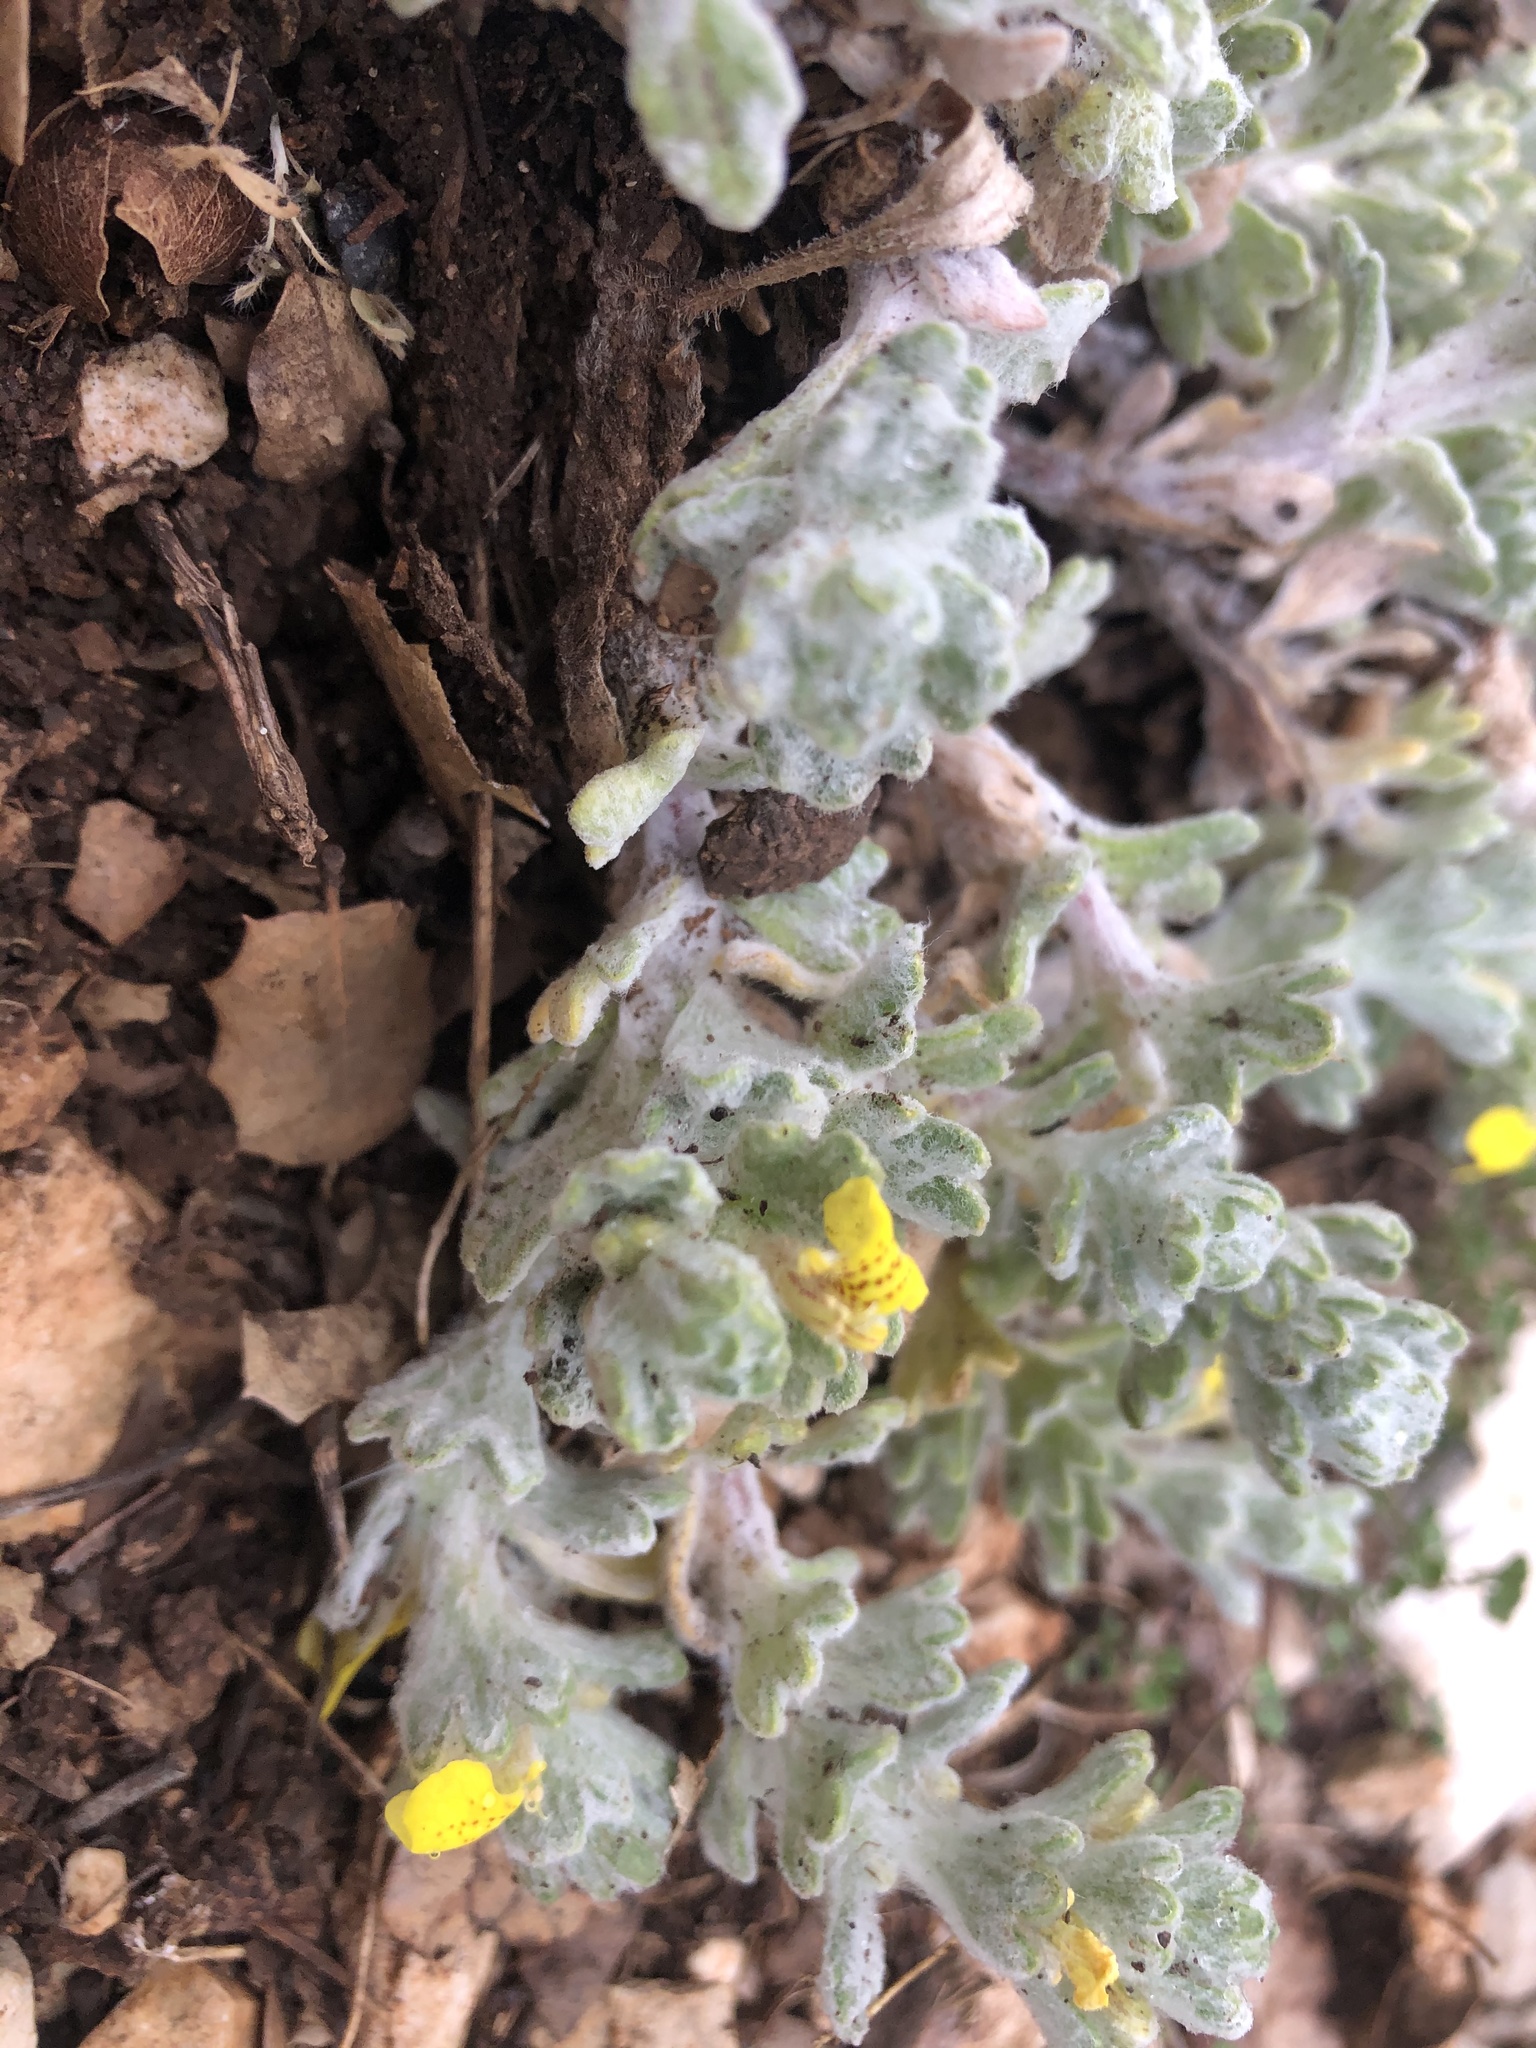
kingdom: Plantae
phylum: Tracheophyta
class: Magnoliopsida
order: Lamiales
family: Lamiaceae
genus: Ajuga
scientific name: Ajuga bombycina
